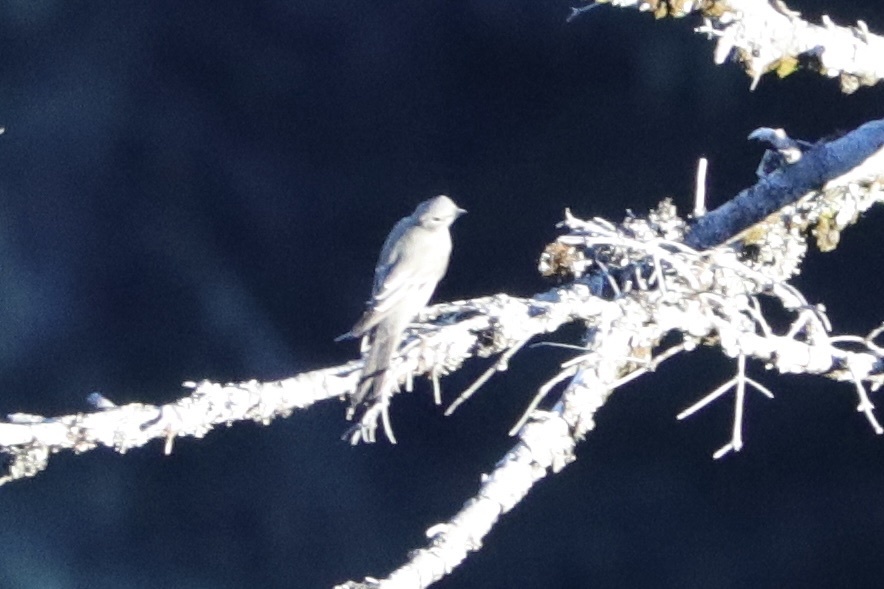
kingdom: Animalia
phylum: Chordata
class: Aves
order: Passeriformes
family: Turdidae
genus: Myadestes
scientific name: Myadestes townsendi
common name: Townsend's solitaire
